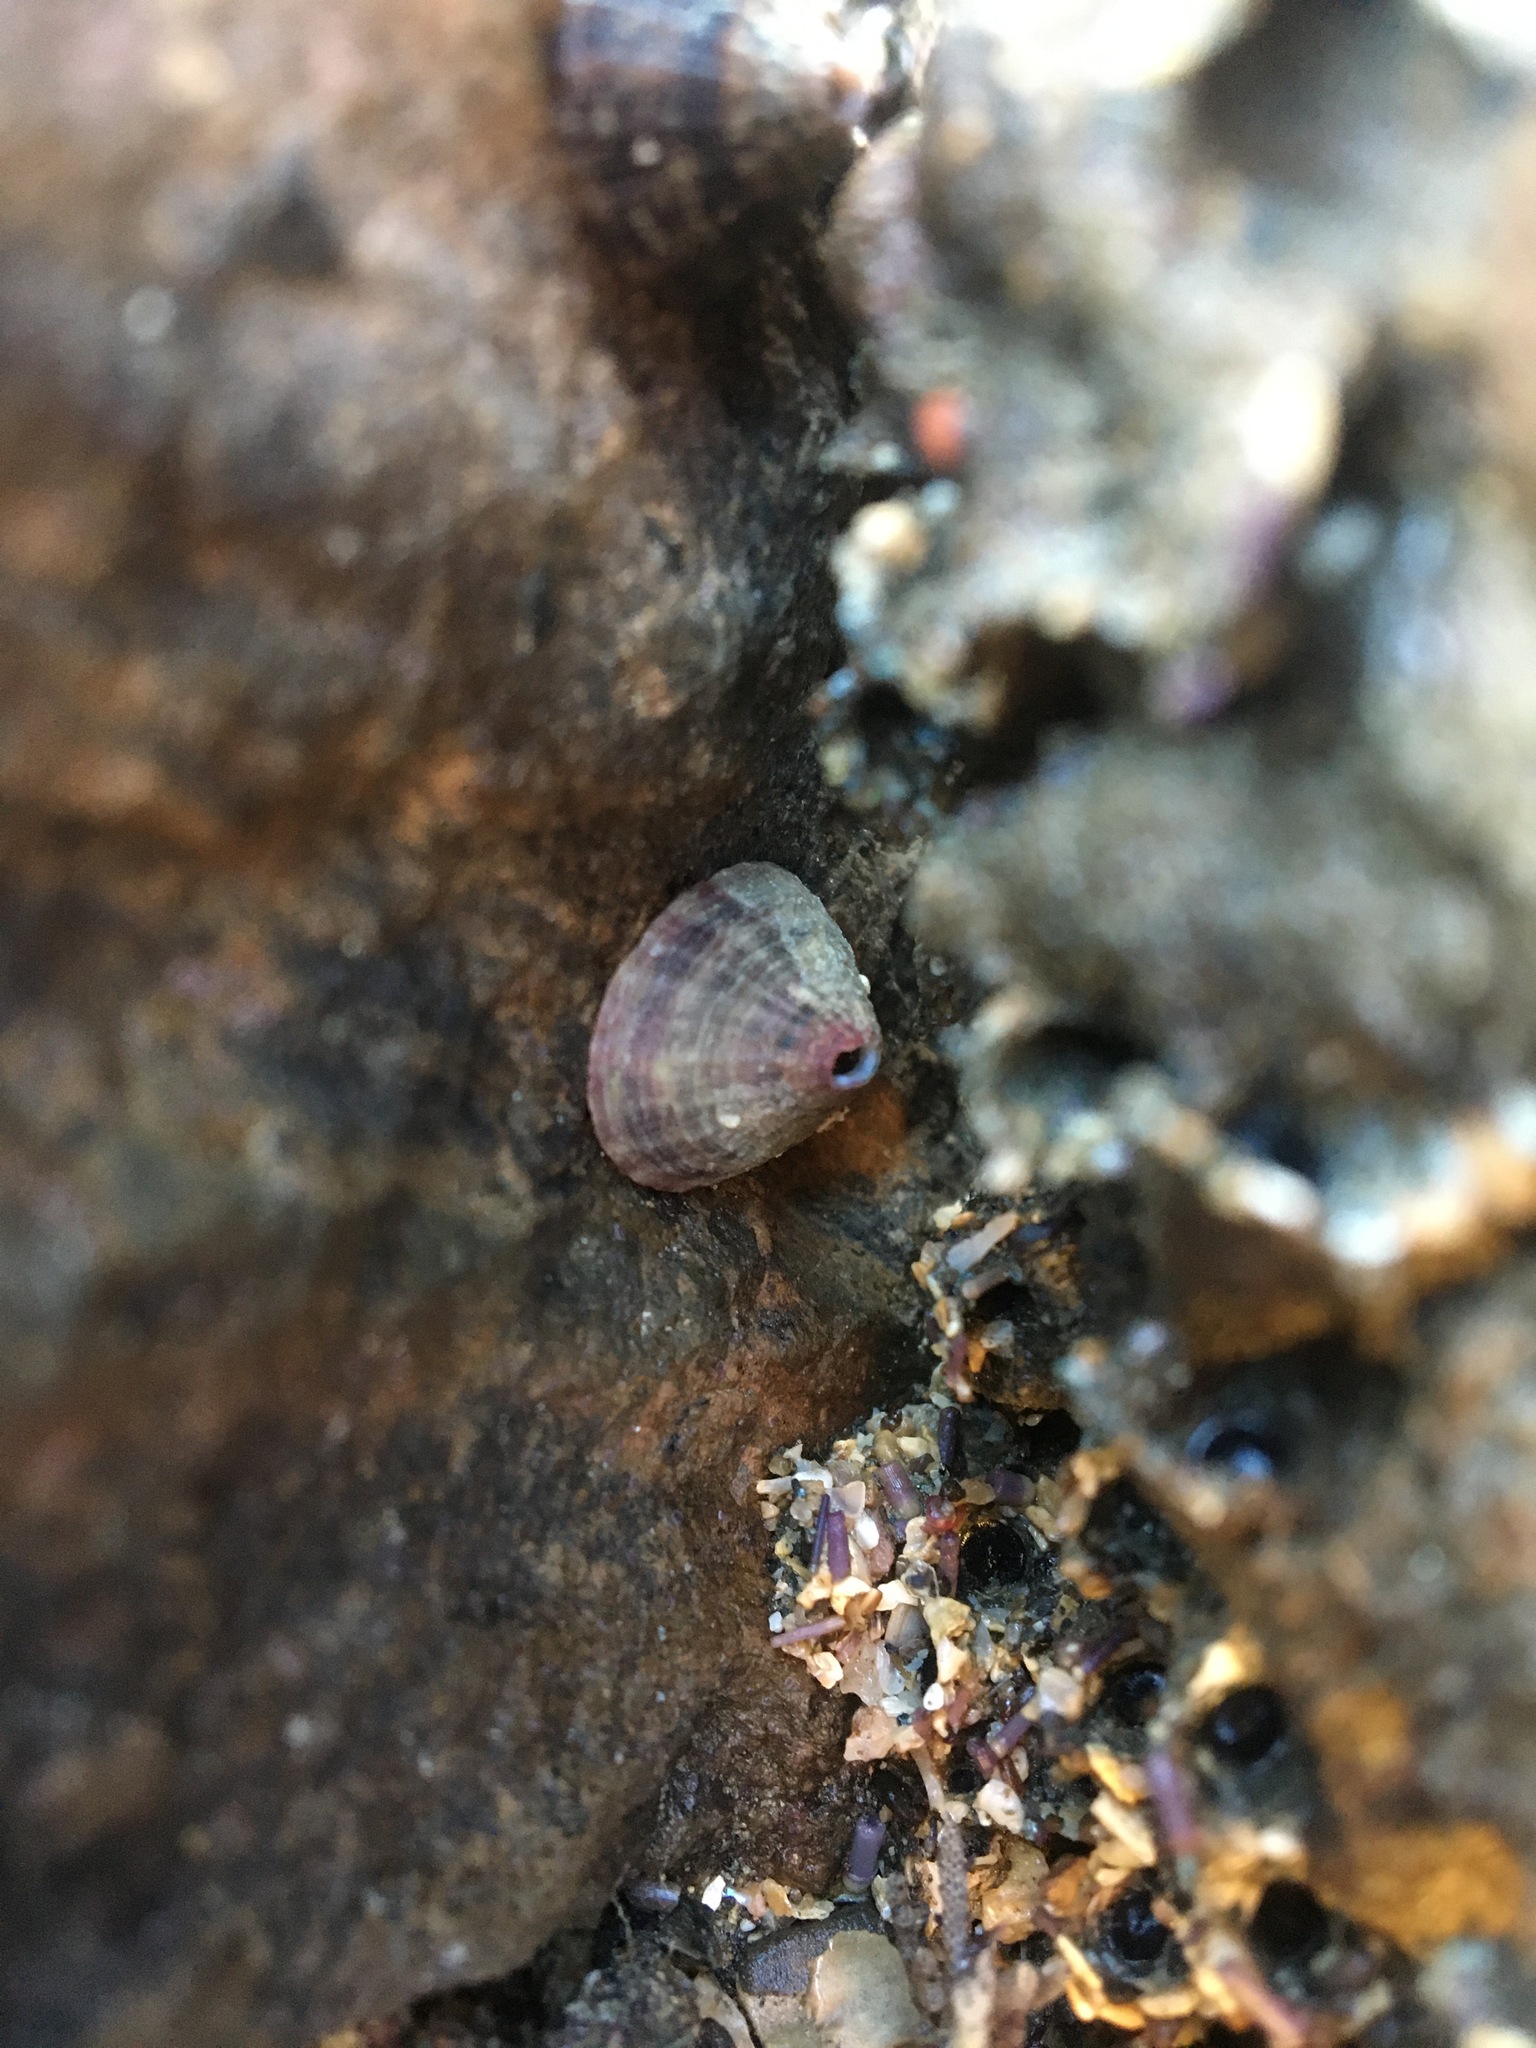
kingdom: Animalia
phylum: Mollusca
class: Gastropoda
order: Lepetellida
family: Fissurellidae
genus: Fissurella
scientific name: Fissurella volcano
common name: Volcano keyhole limpet
